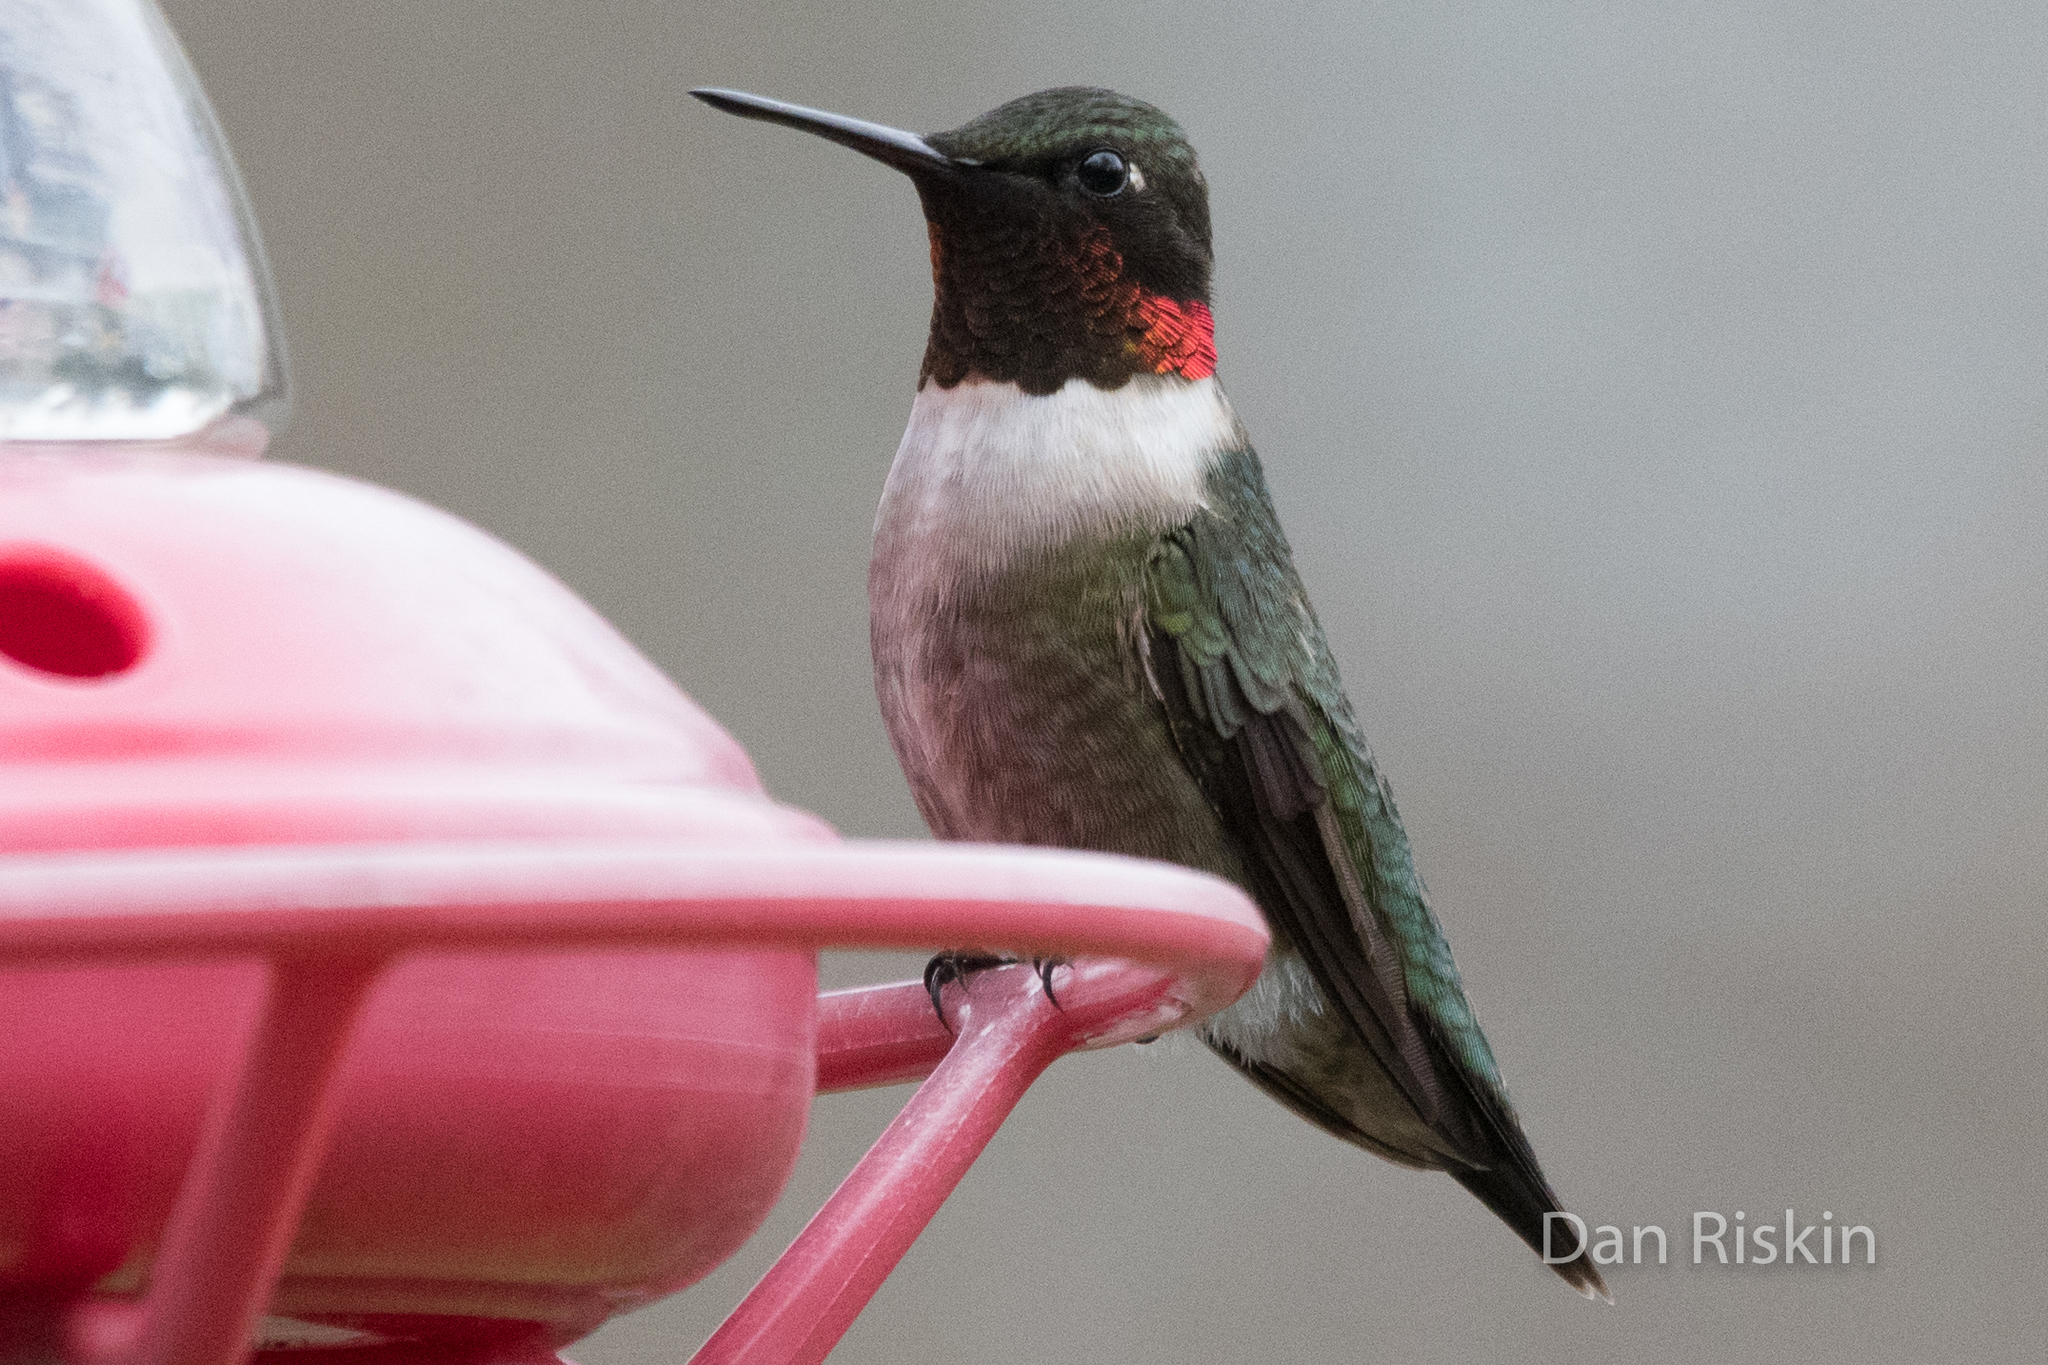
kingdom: Animalia
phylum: Chordata
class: Aves
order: Apodiformes
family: Trochilidae
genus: Archilochus
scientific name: Archilochus colubris
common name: Ruby-throated hummingbird
